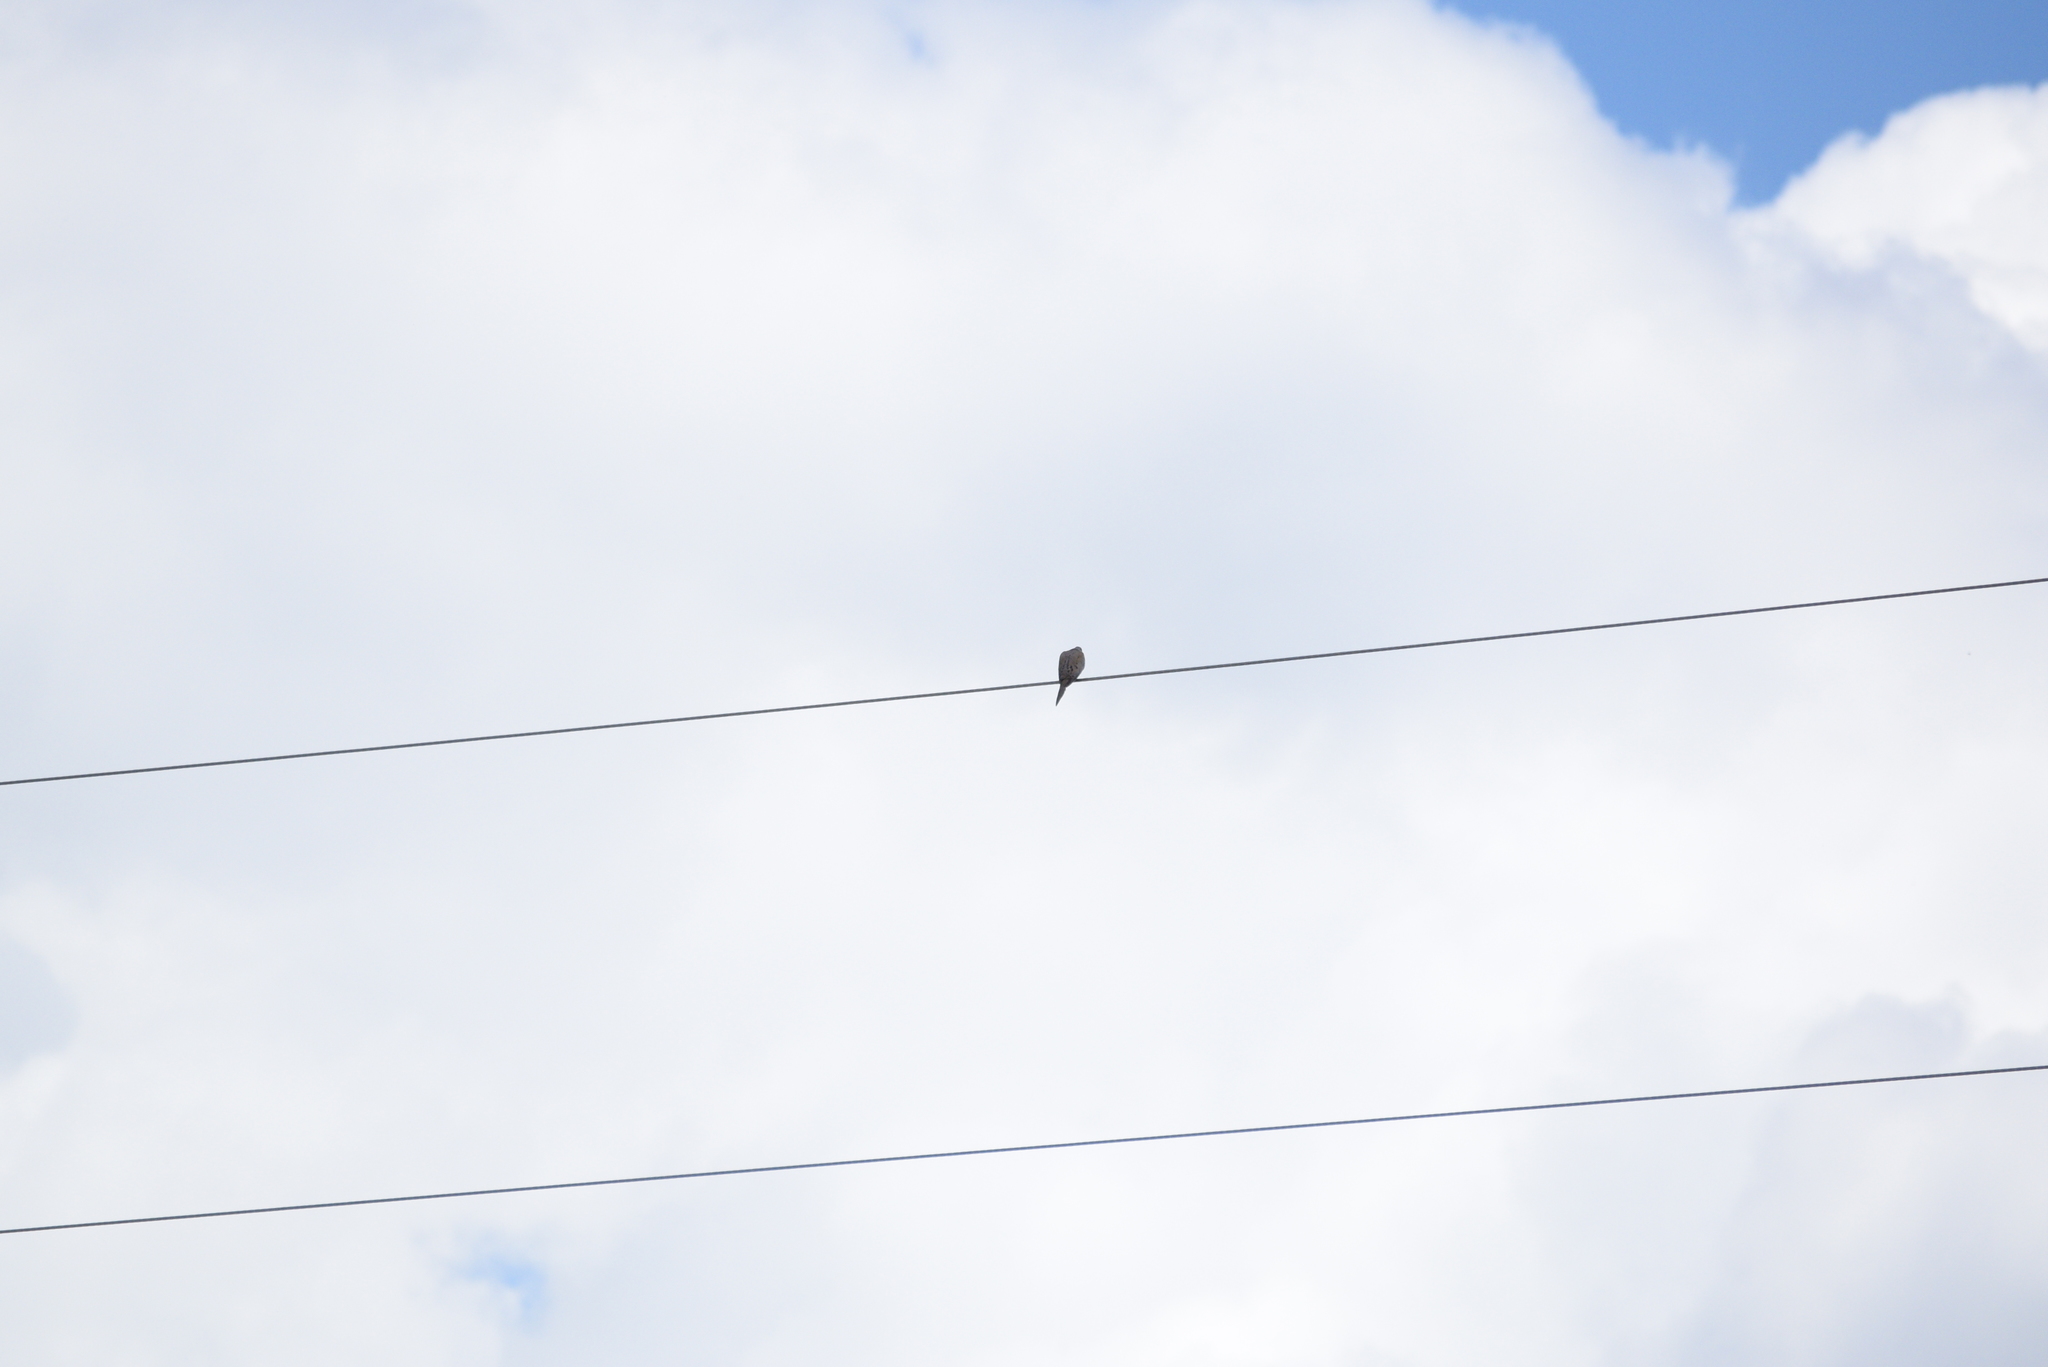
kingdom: Animalia
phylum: Chordata
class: Aves
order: Columbiformes
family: Columbidae
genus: Zenaida
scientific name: Zenaida macroura
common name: Mourning dove
